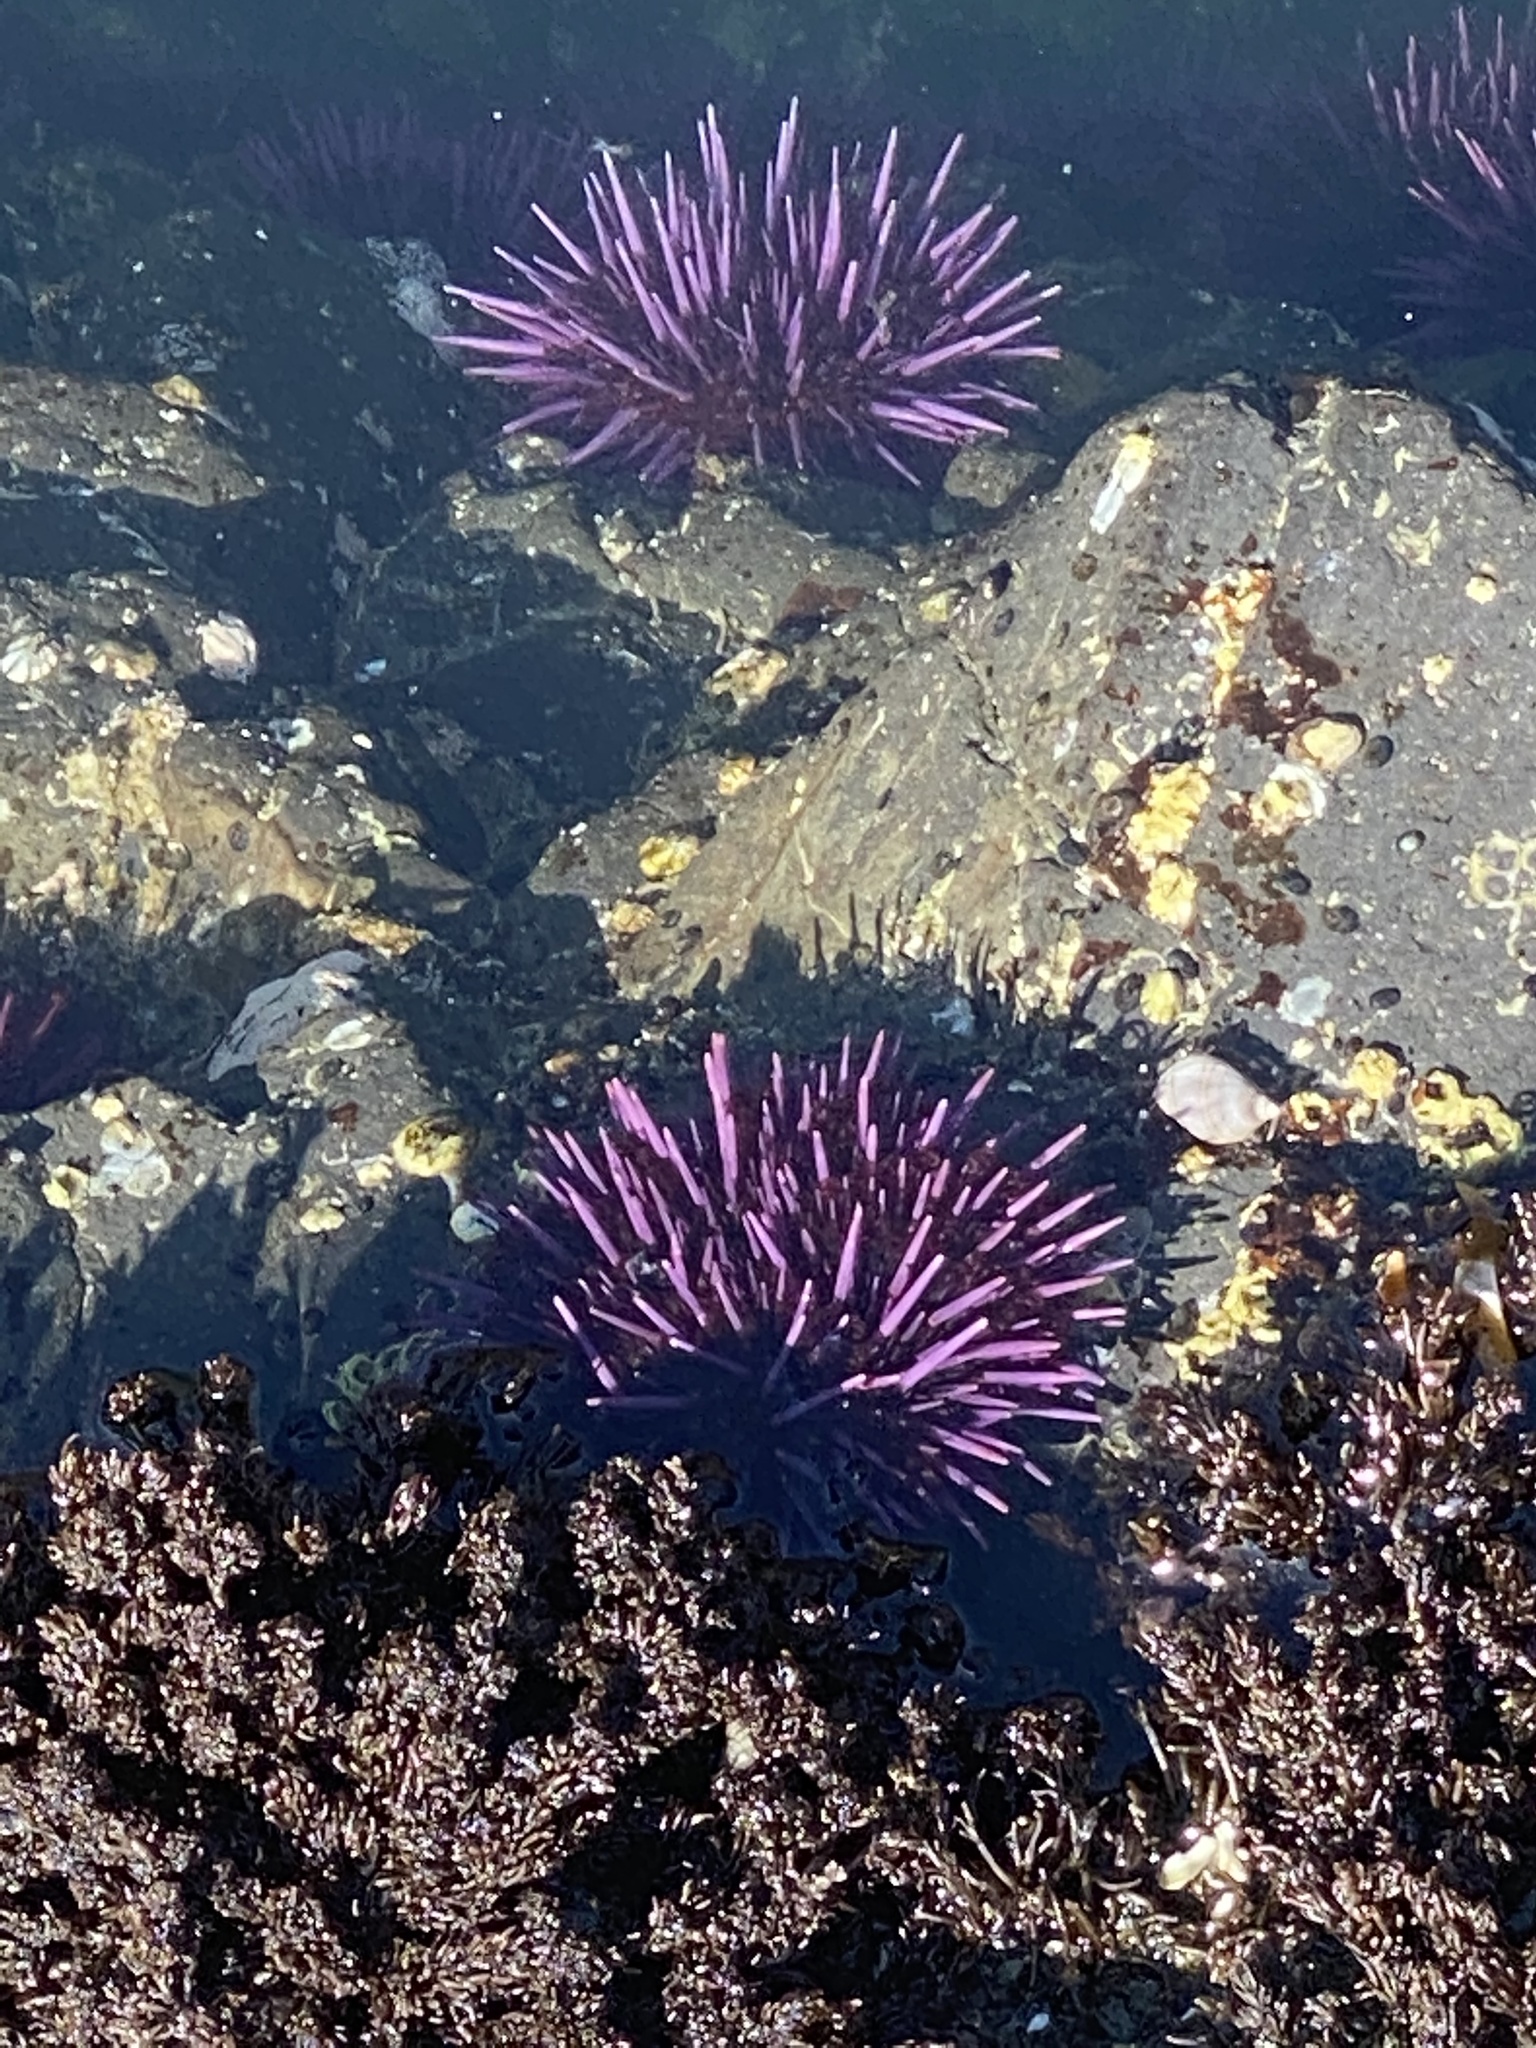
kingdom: Animalia
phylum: Echinodermata
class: Echinoidea
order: Camarodonta
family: Strongylocentrotidae
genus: Strongylocentrotus
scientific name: Strongylocentrotus purpuratus
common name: Purple sea urchin
